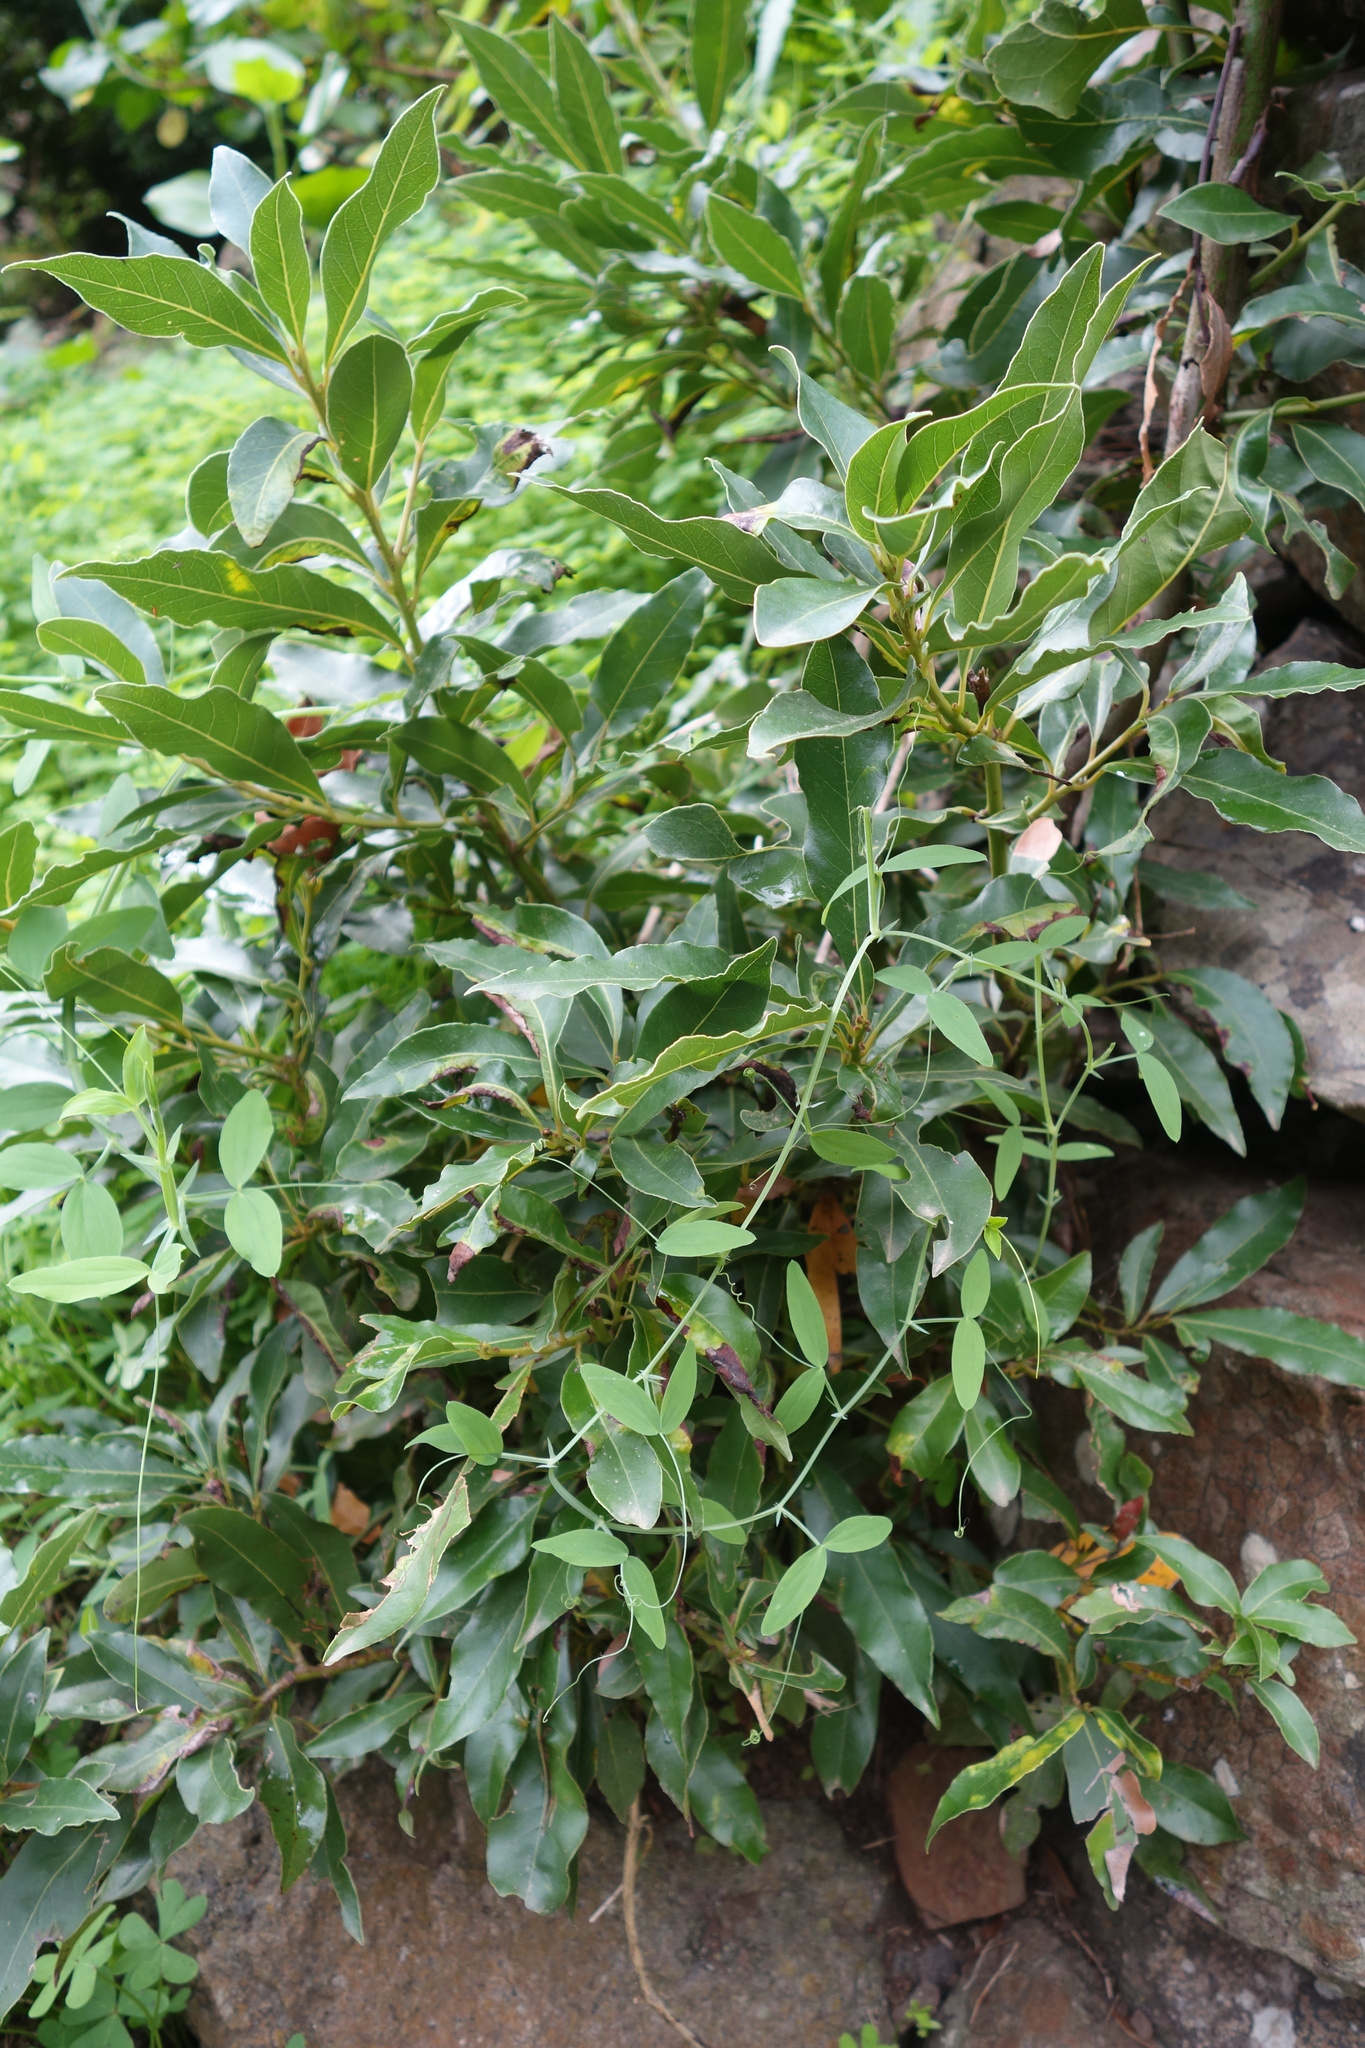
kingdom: Plantae
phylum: Tracheophyta
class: Magnoliopsida
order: Laurales
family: Lauraceae
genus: Laurus
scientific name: Laurus novocanariensis
